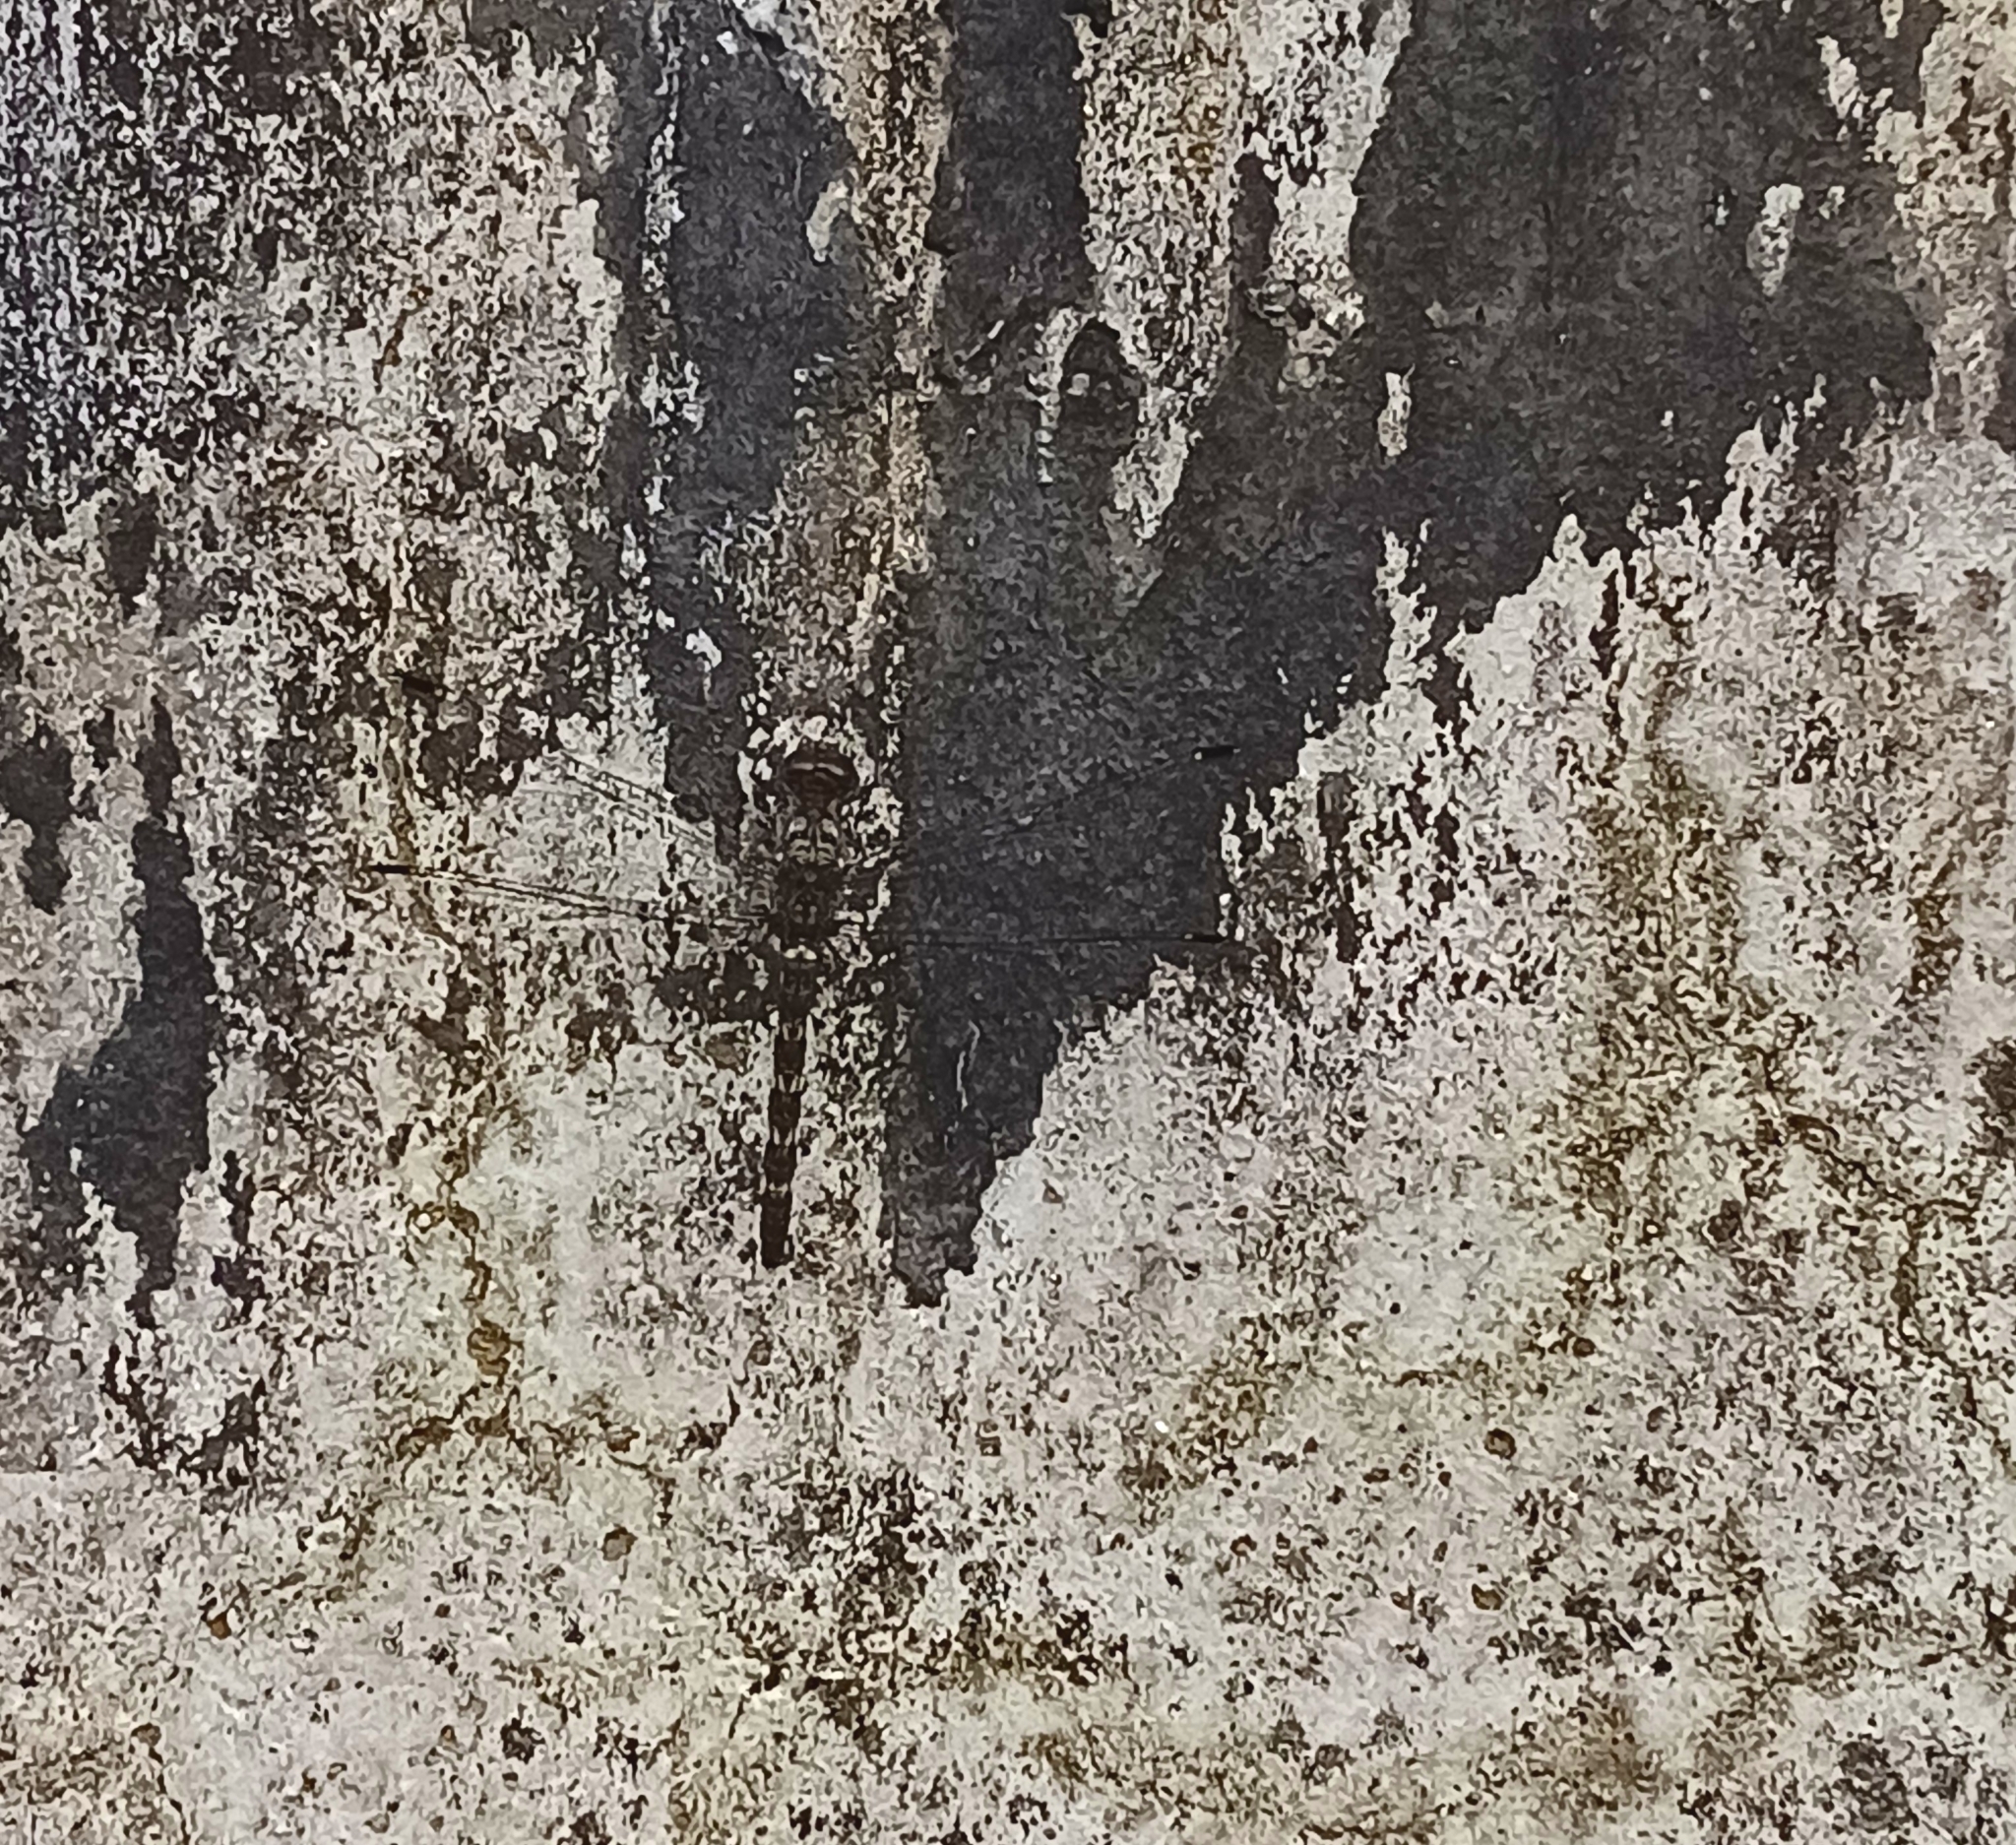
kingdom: Animalia
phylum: Arthropoda
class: Insecta
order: Odonata
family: Libellulidae
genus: Bradinopyga
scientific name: Bradinopyga geminata
